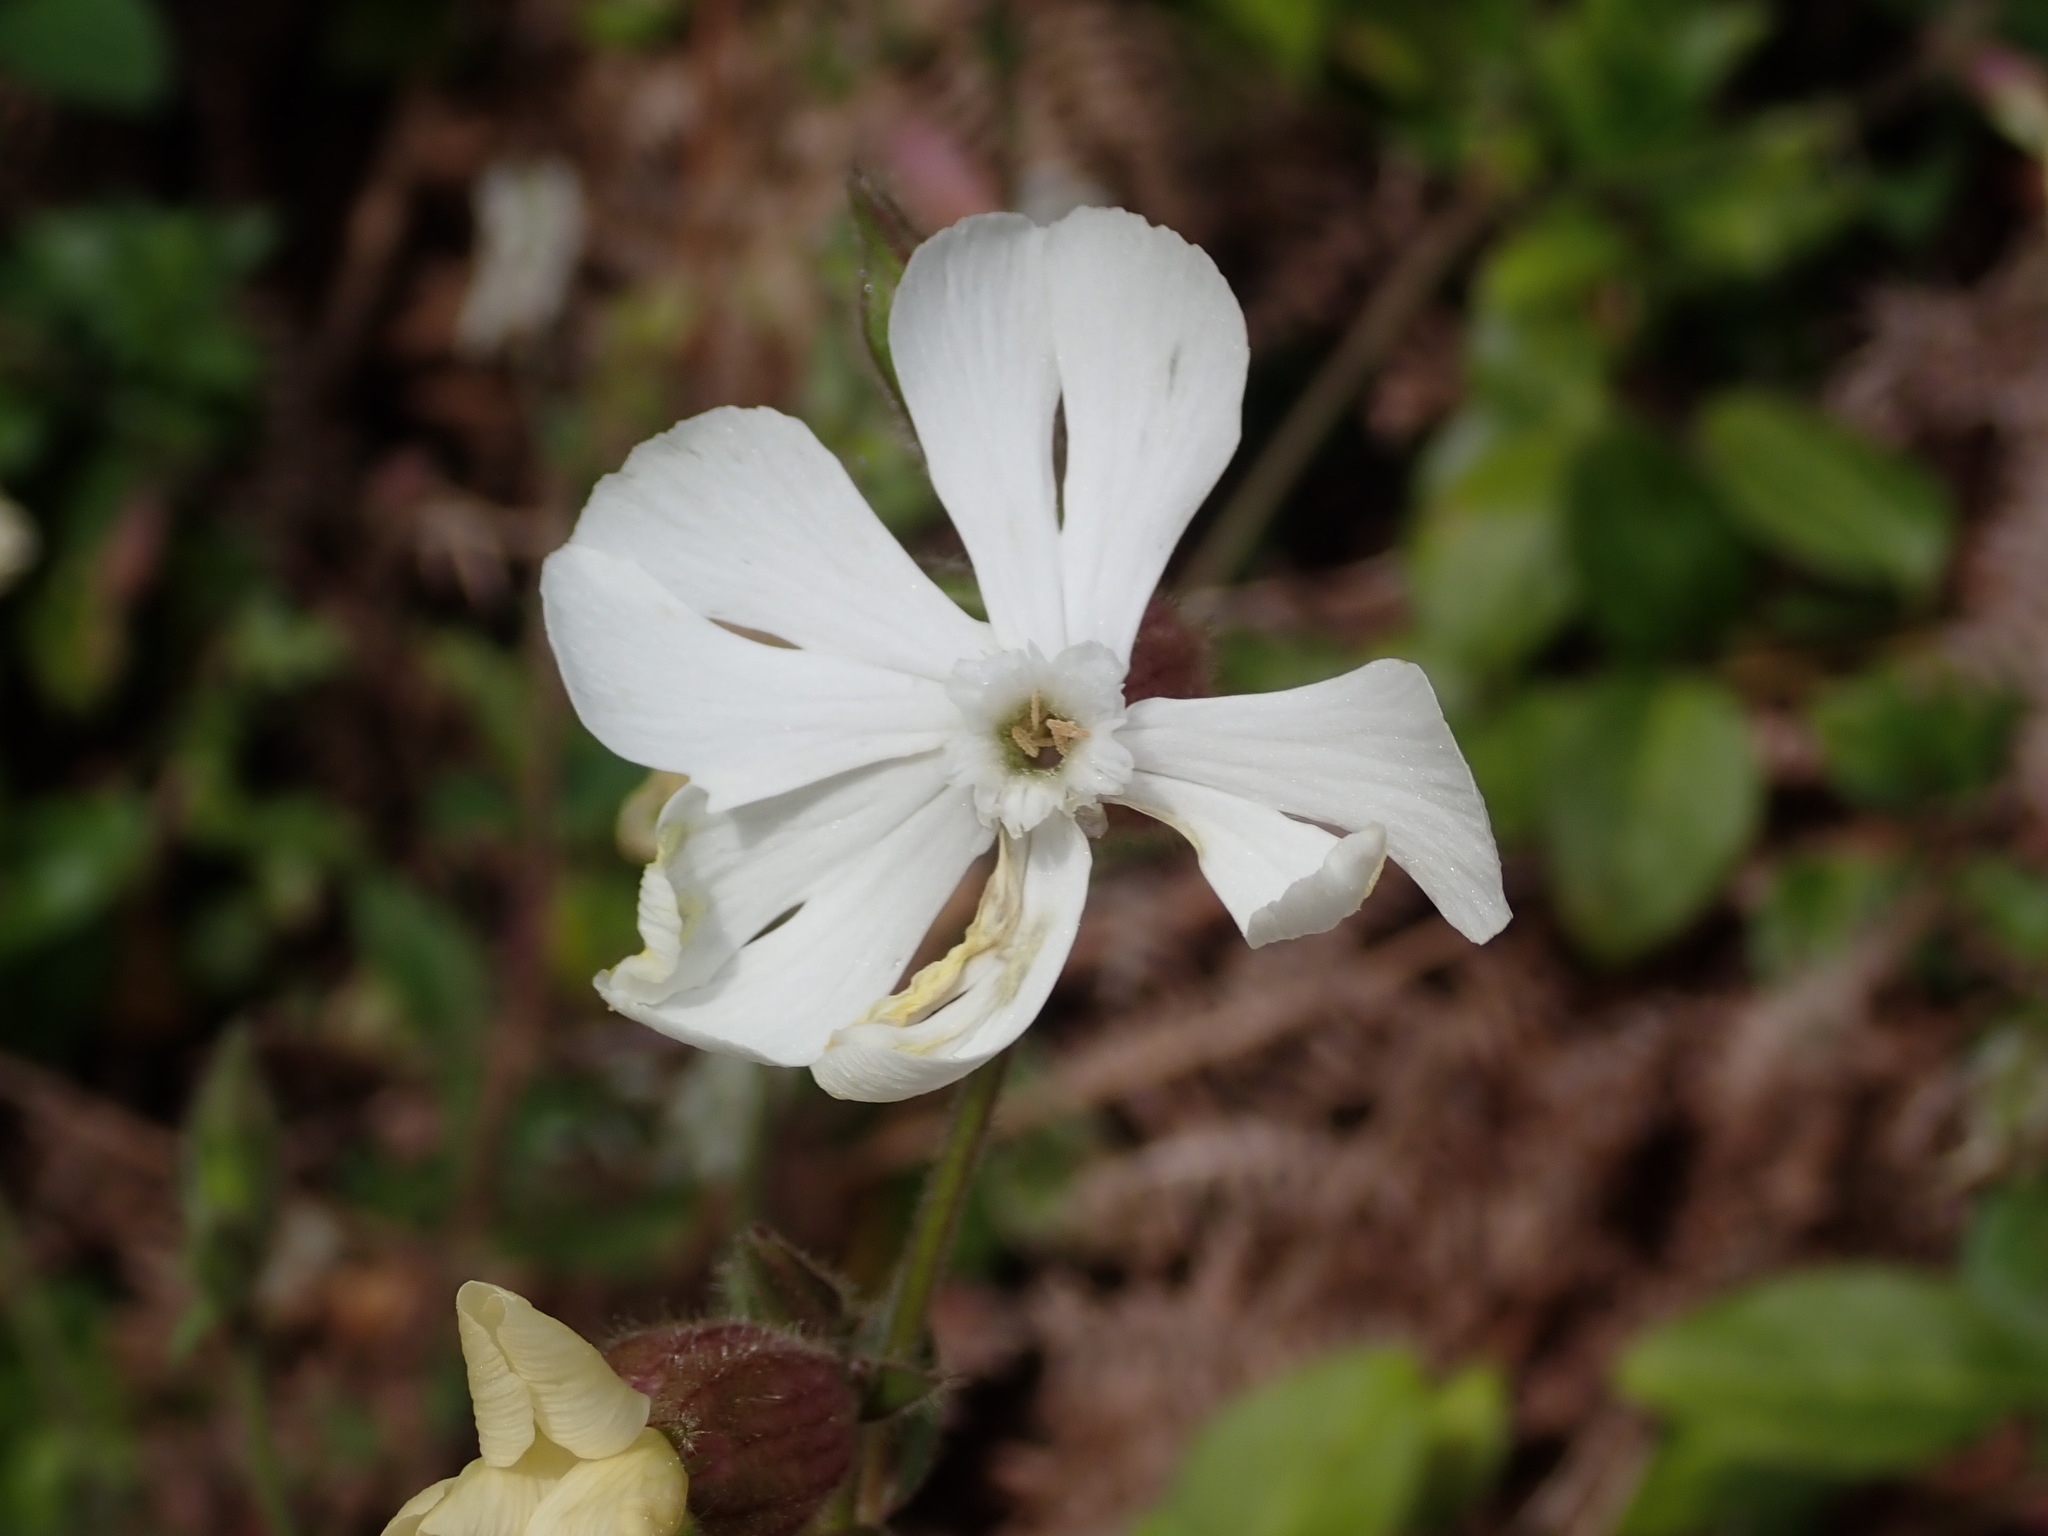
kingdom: Plantae
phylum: Tracheophyta
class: Magnoliopsida
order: Caryophyllales
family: Caryophyllaceae
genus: Silene
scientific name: Silene latifolia
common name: White campion
